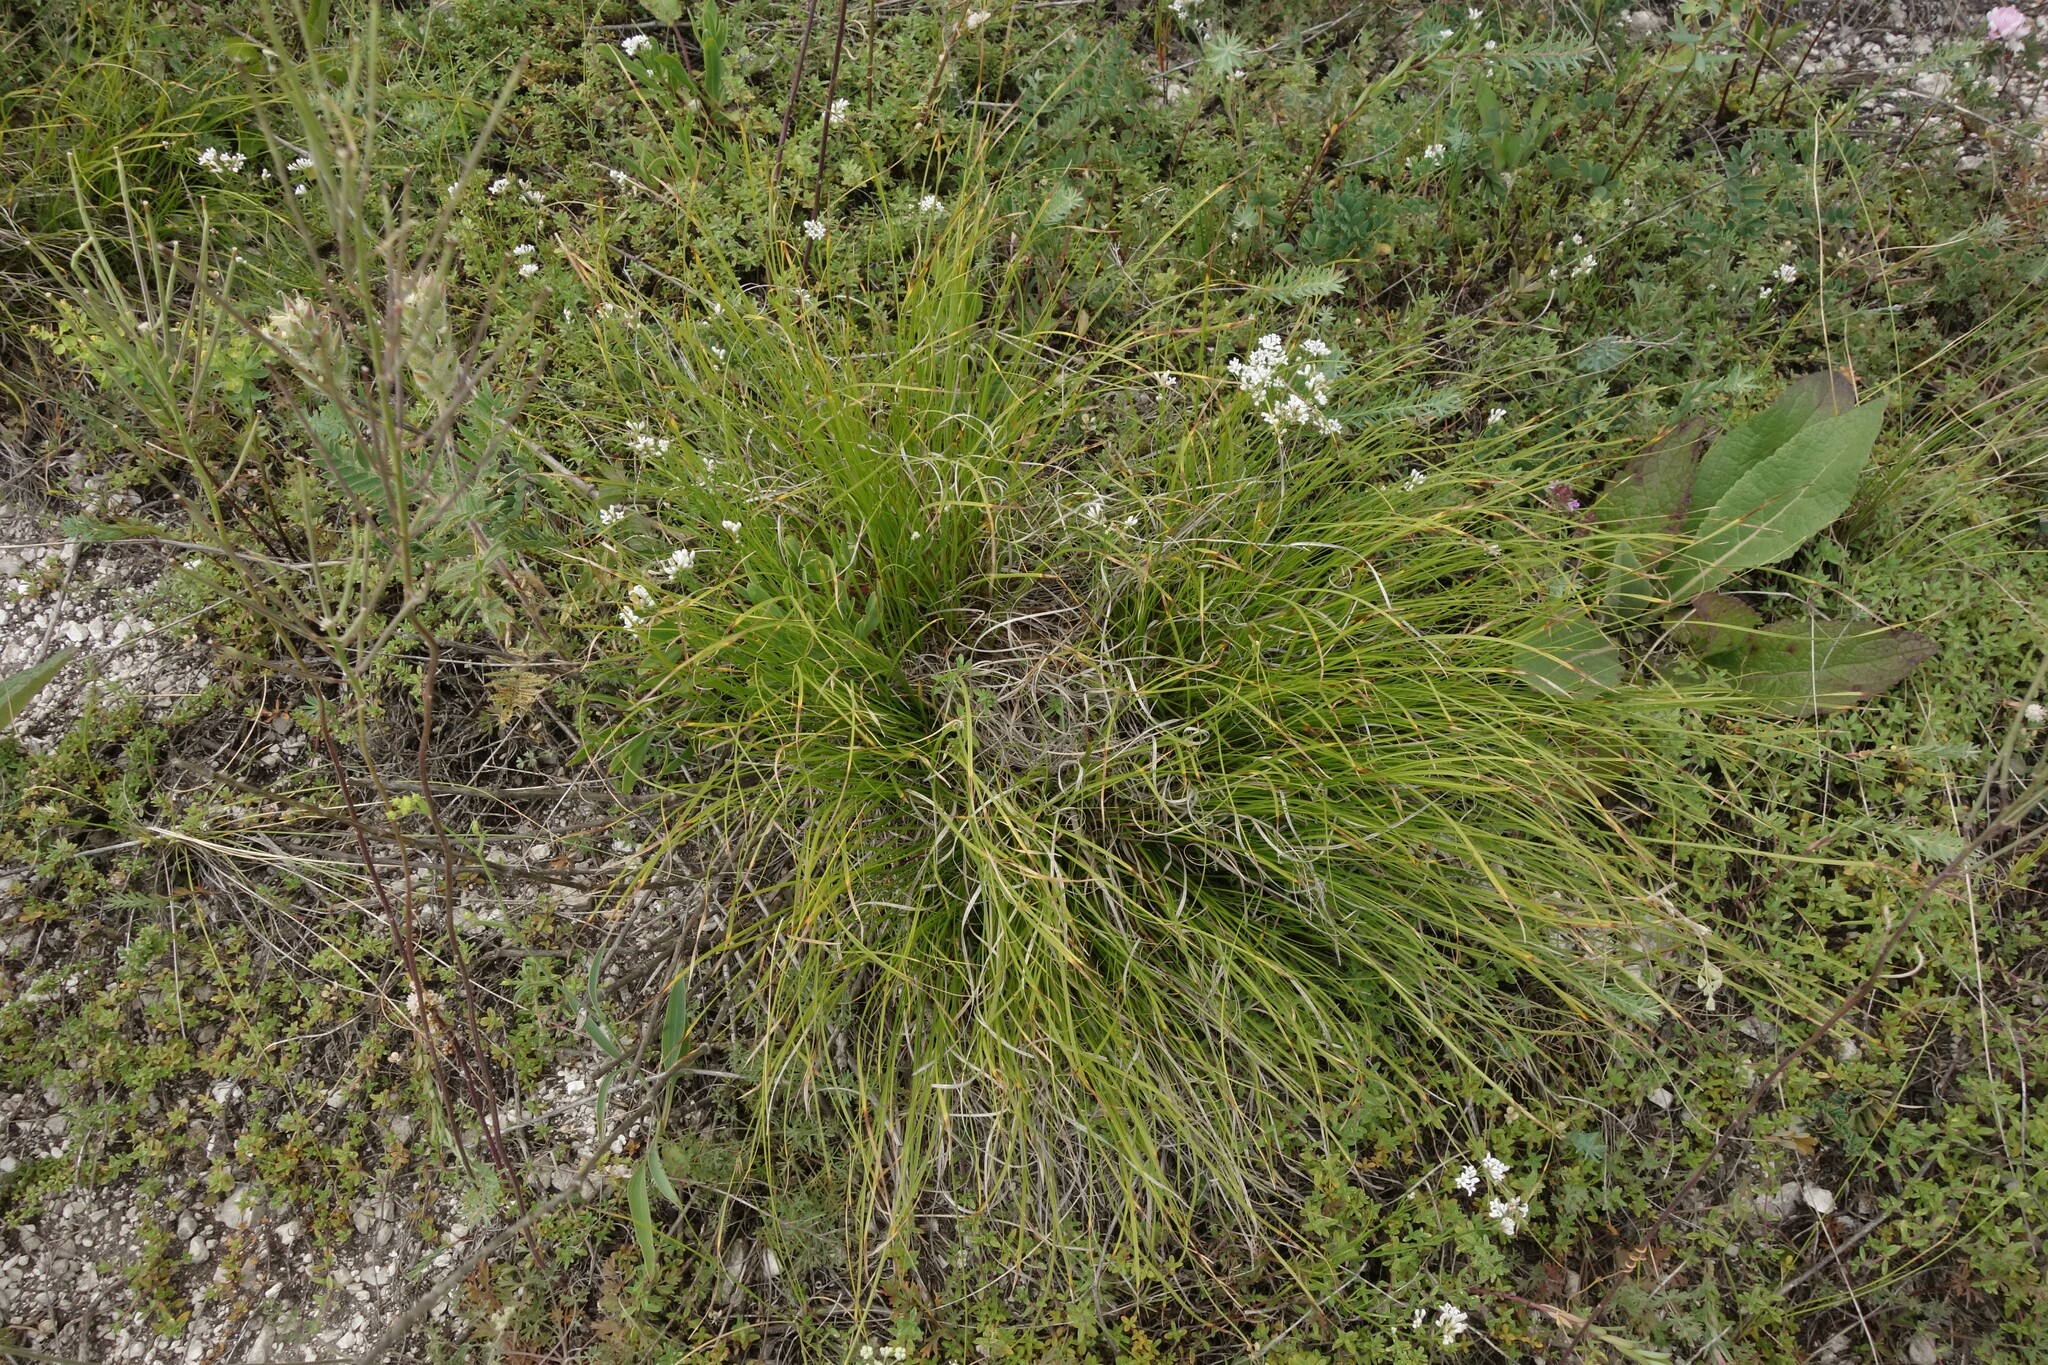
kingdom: Plantae
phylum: Tracheophyta
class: Liliopsida
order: Poales
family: Cyperaceae
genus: Carex
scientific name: Carex humilis
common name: Dwarf sedge
